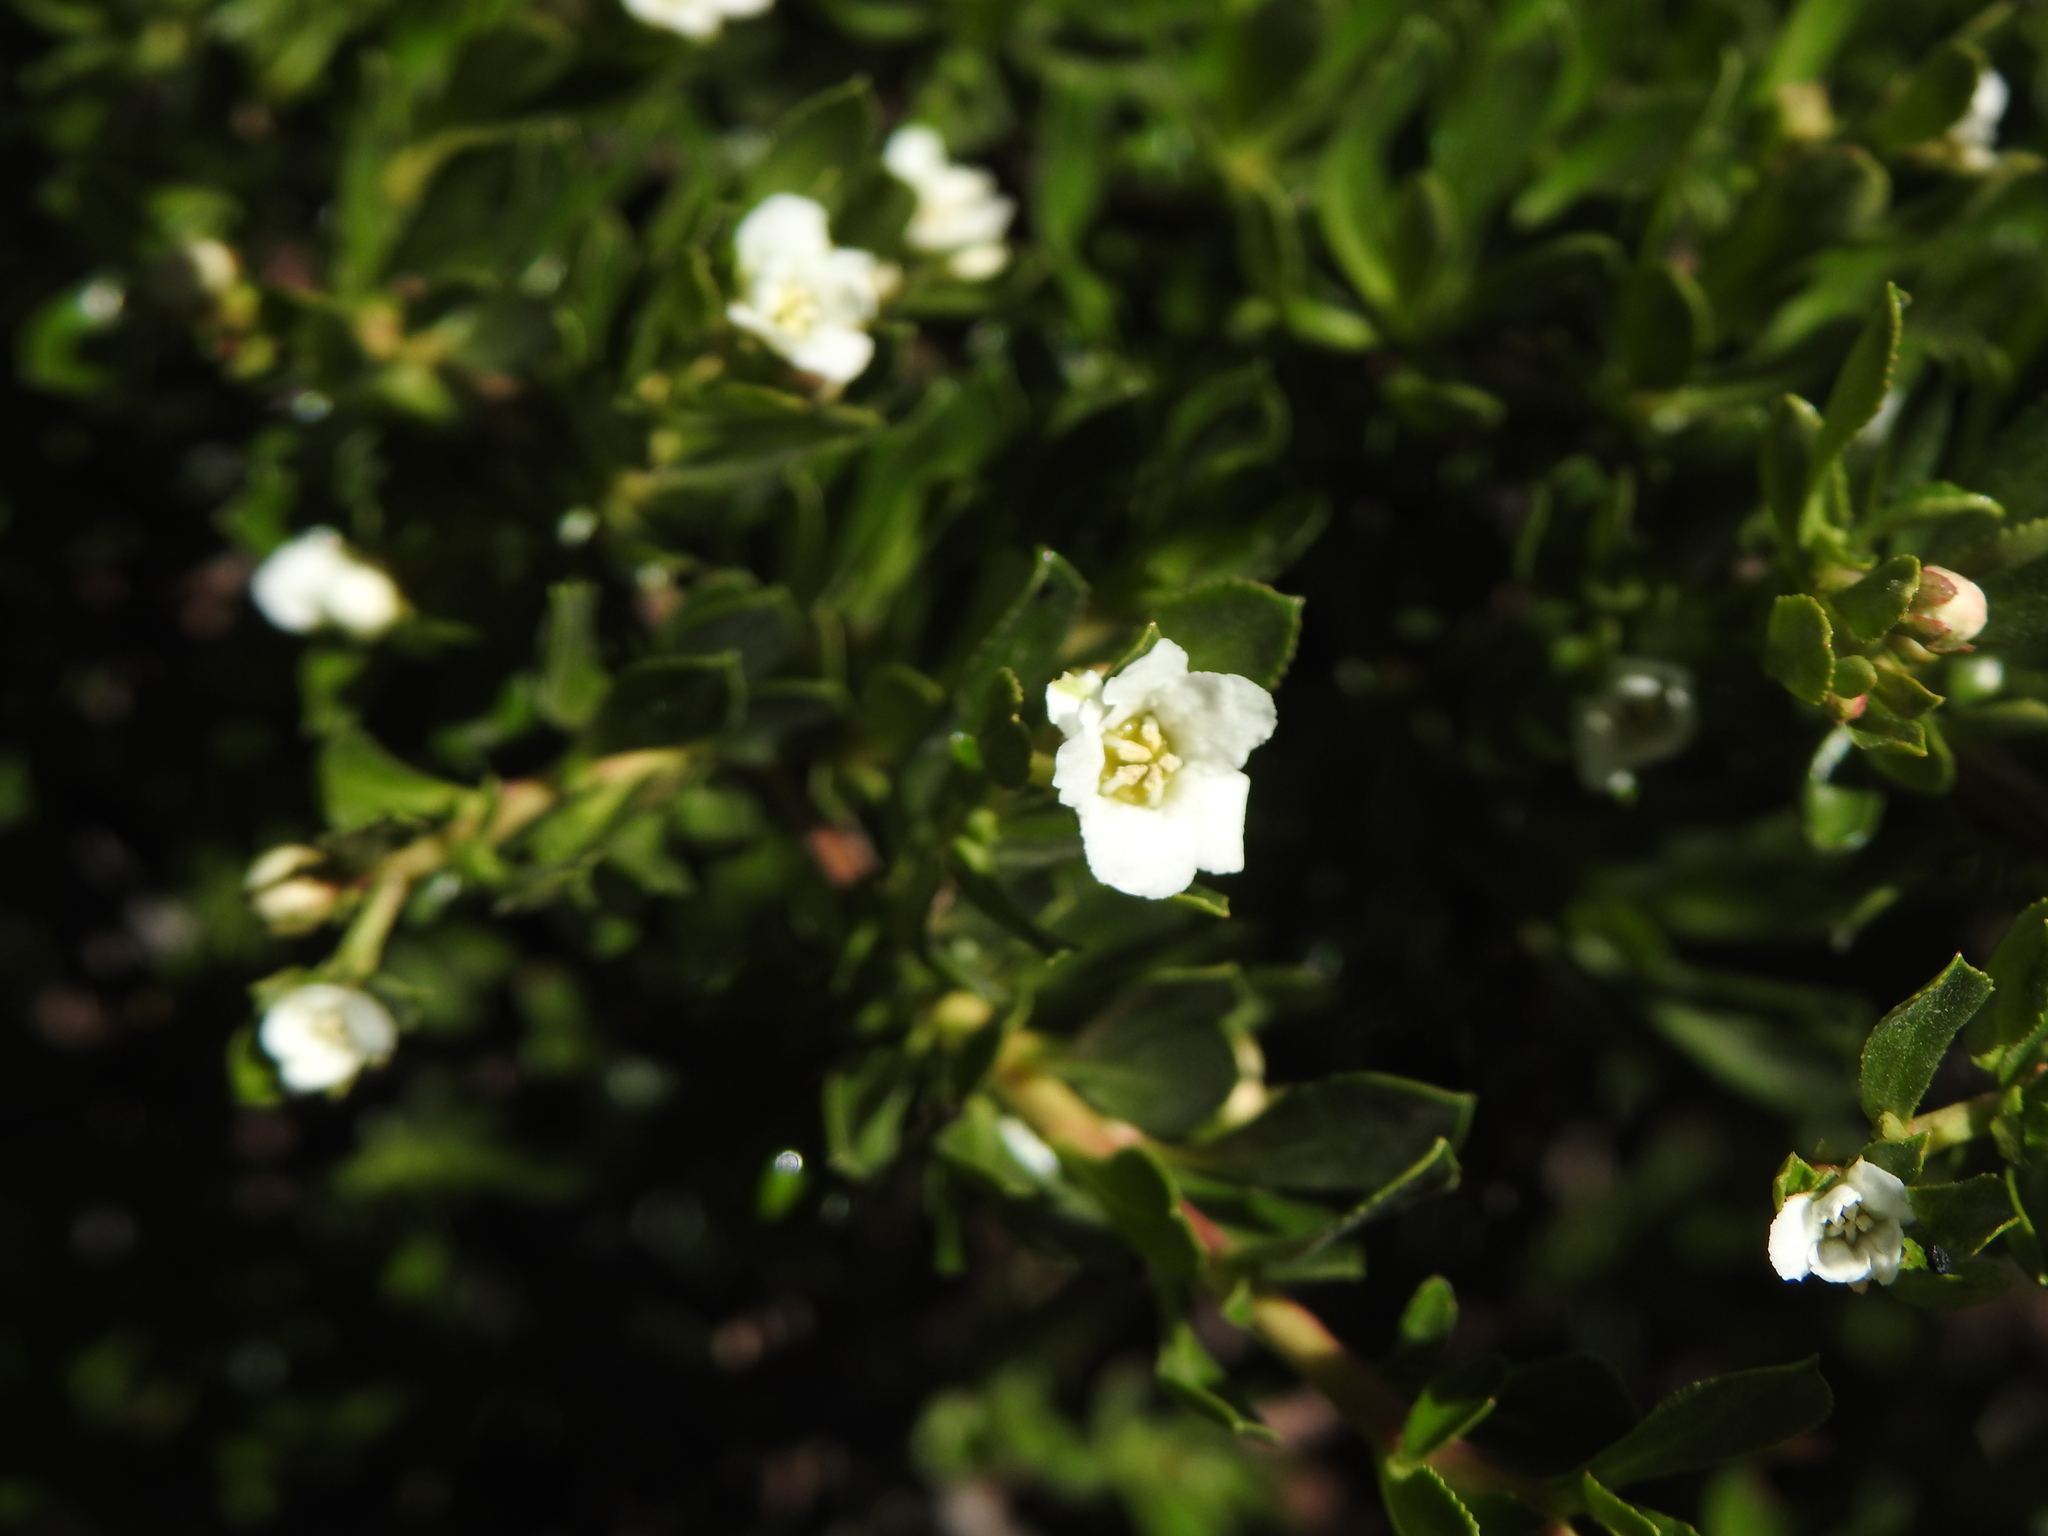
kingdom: Plantae
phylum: Tracheophyta
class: Magnoliopsida
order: Escalloniales
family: Escalloniaceae
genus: Escallonia
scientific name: Escallonia virgata
